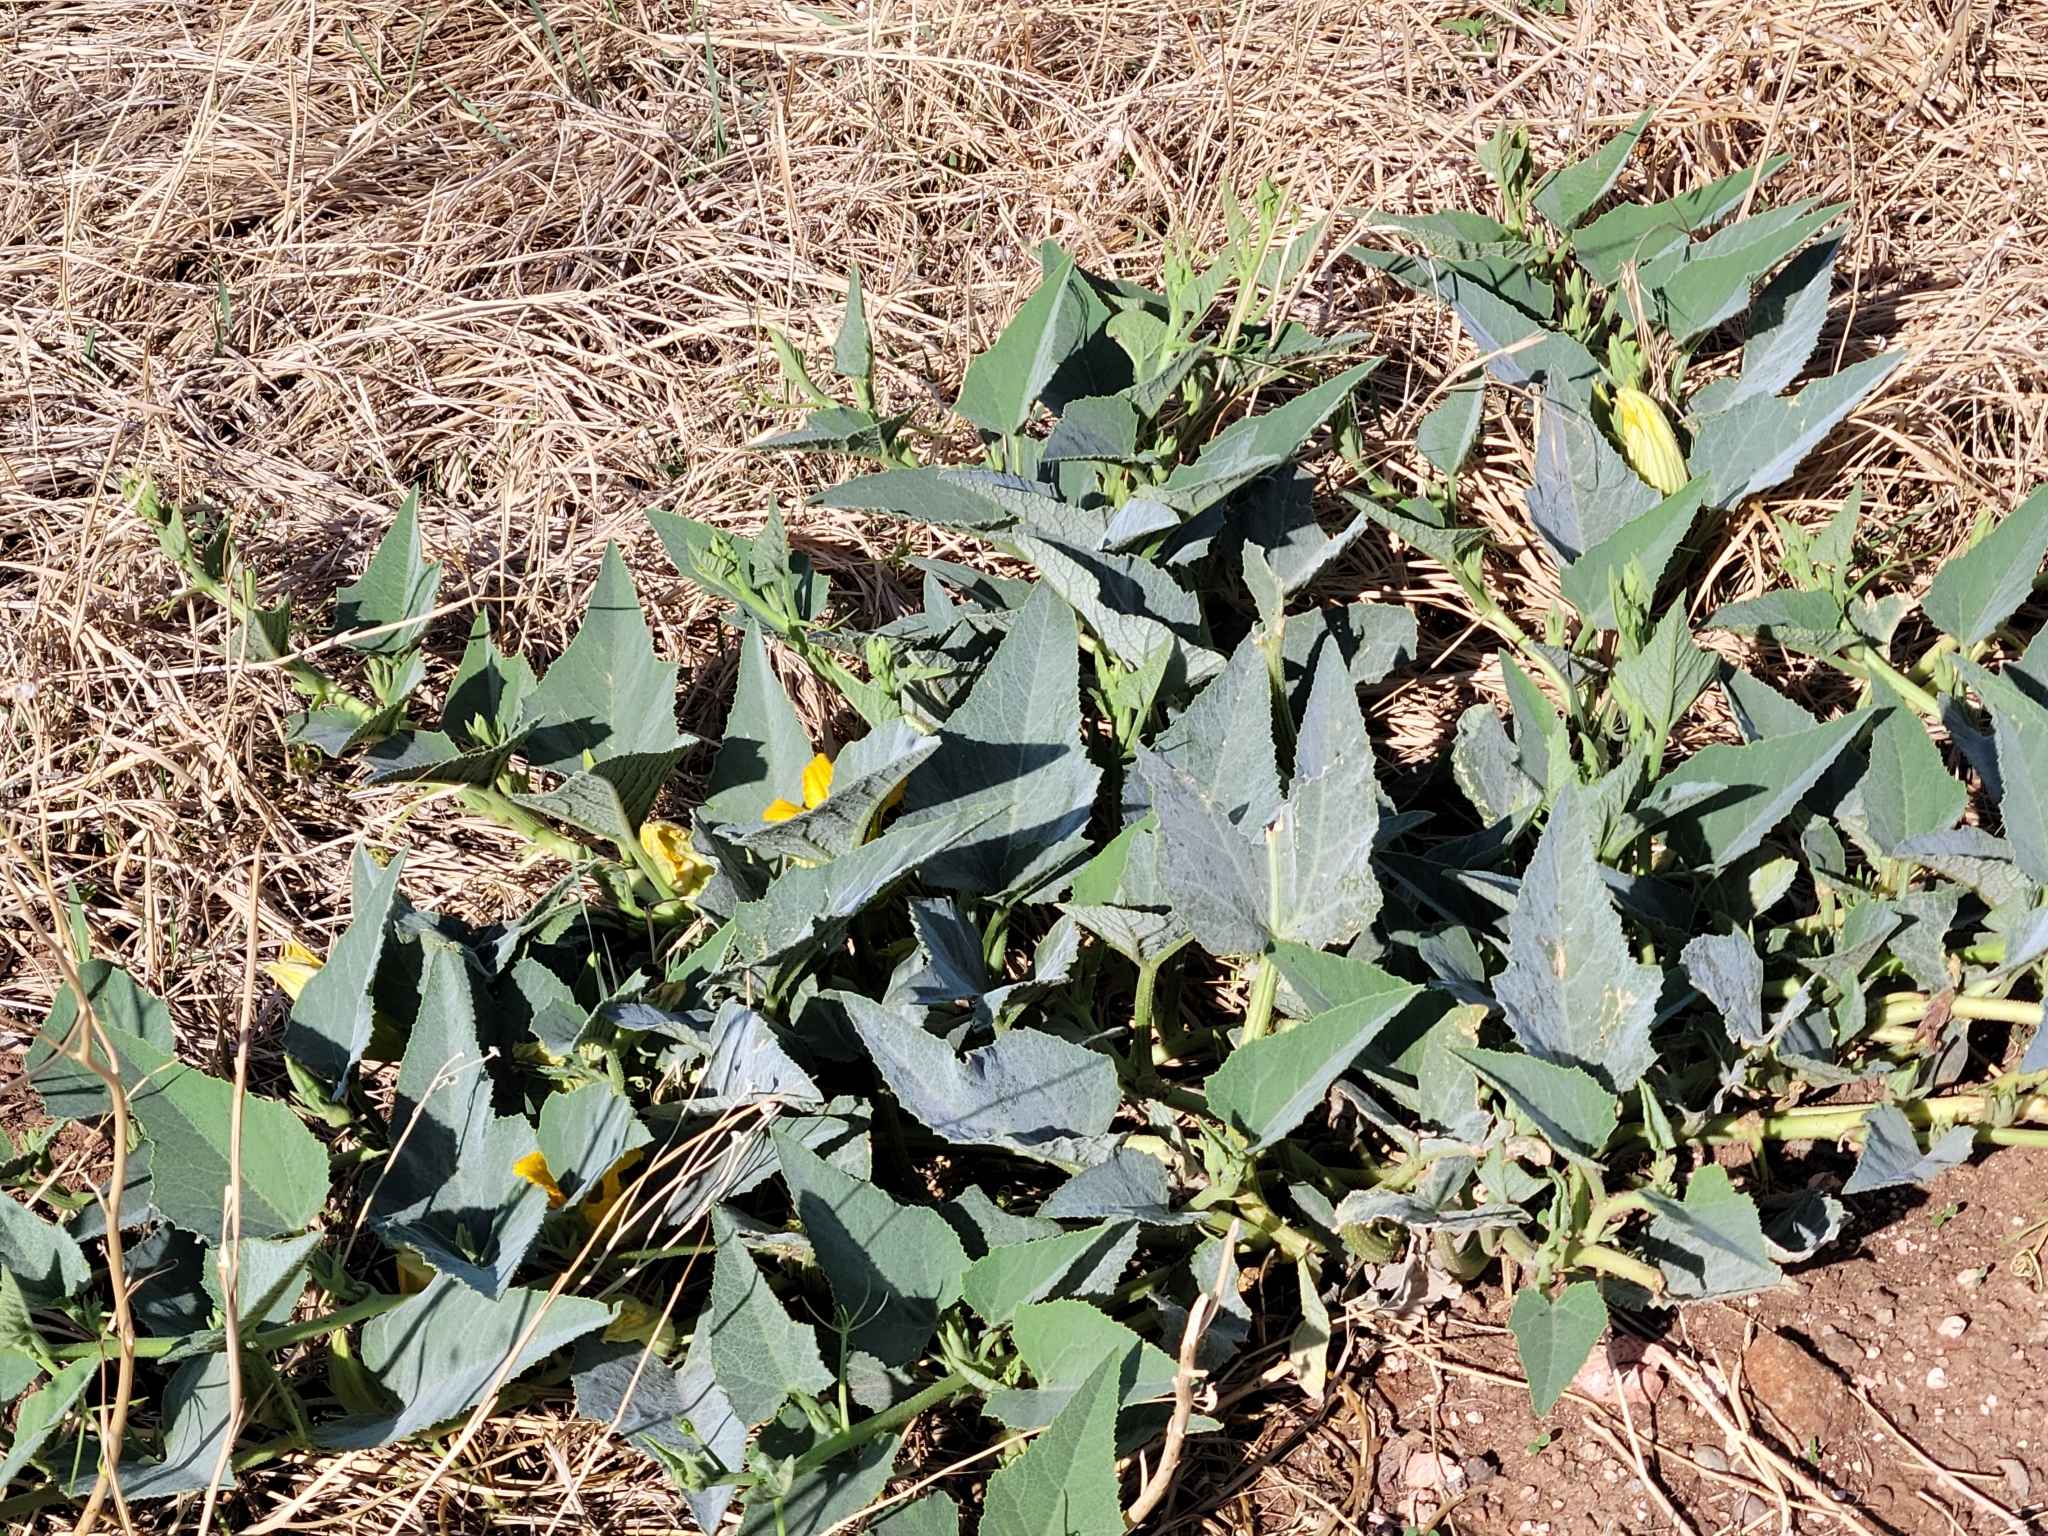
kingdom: Plantae
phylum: Tracheophyta
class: Magnoliopsida
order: Cucurbitales
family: Cucurbitaceae
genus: Cucurbita
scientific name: Cucurbita foetidissima
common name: Buffalo gourd
